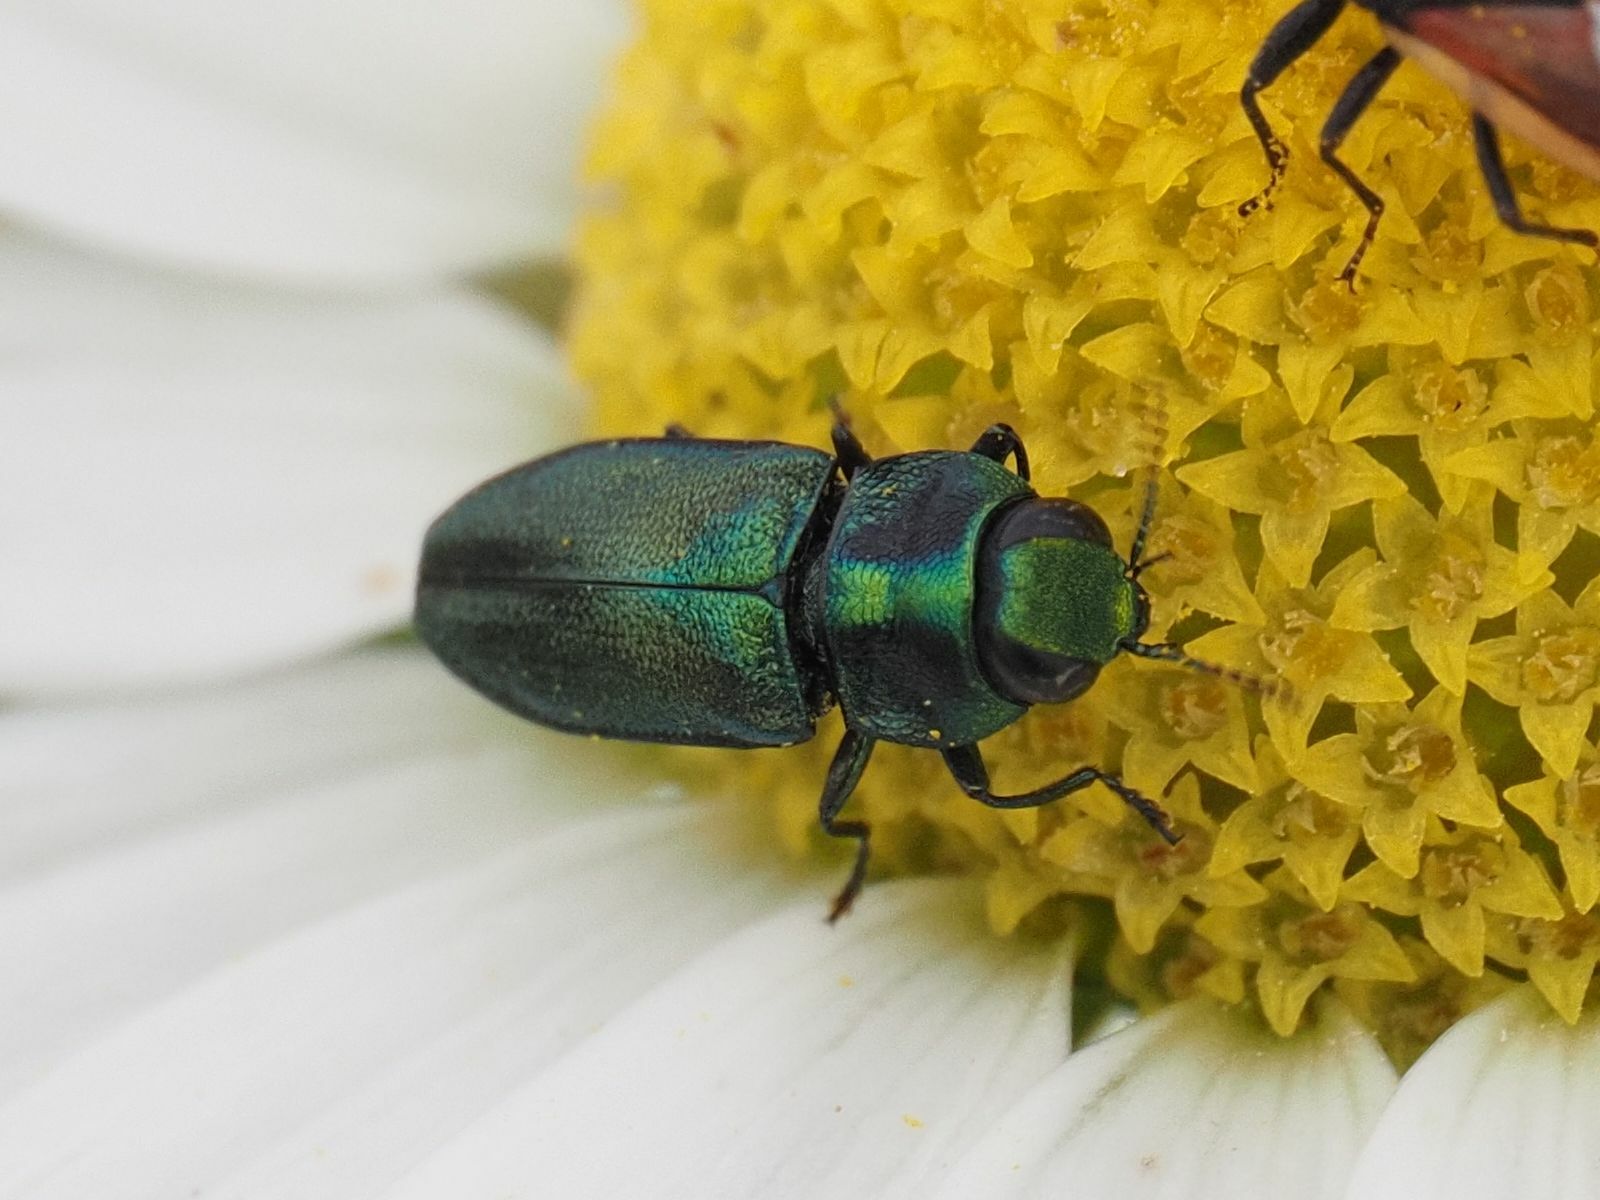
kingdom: Animalia
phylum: Arthropoda
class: Insecta
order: Coleoptera
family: Buprestidae
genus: Anthaxia
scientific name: Anthaxia fulgurans
